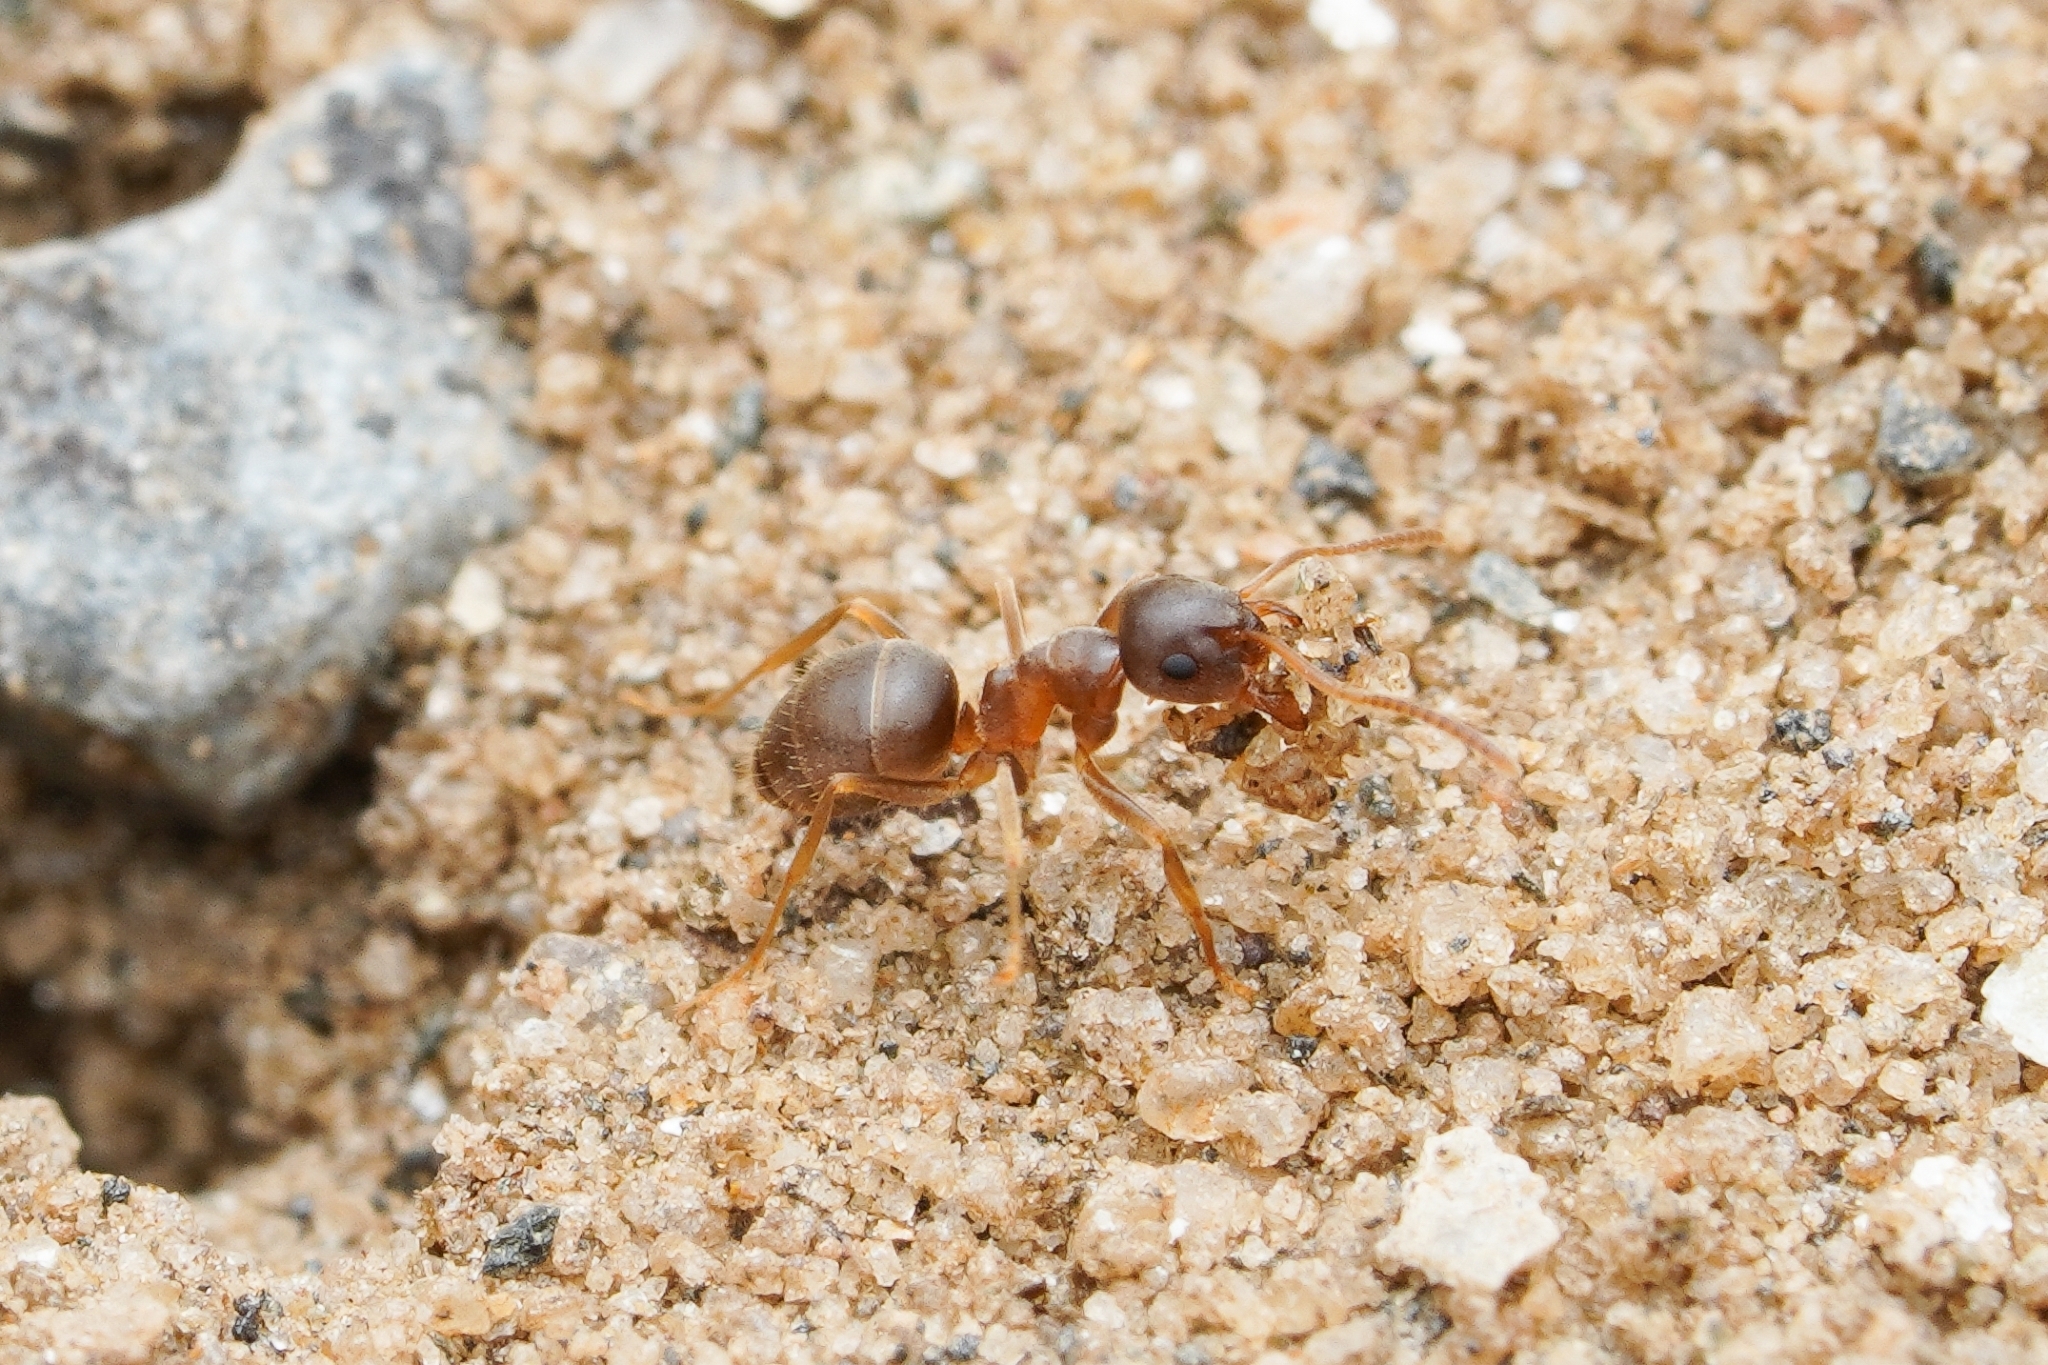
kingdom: Animalia
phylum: Arthropoda
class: Insecta
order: Hymenoptera
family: Formicidae
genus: Lasius
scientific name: Lasius neoniger
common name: Turfgrass ant
